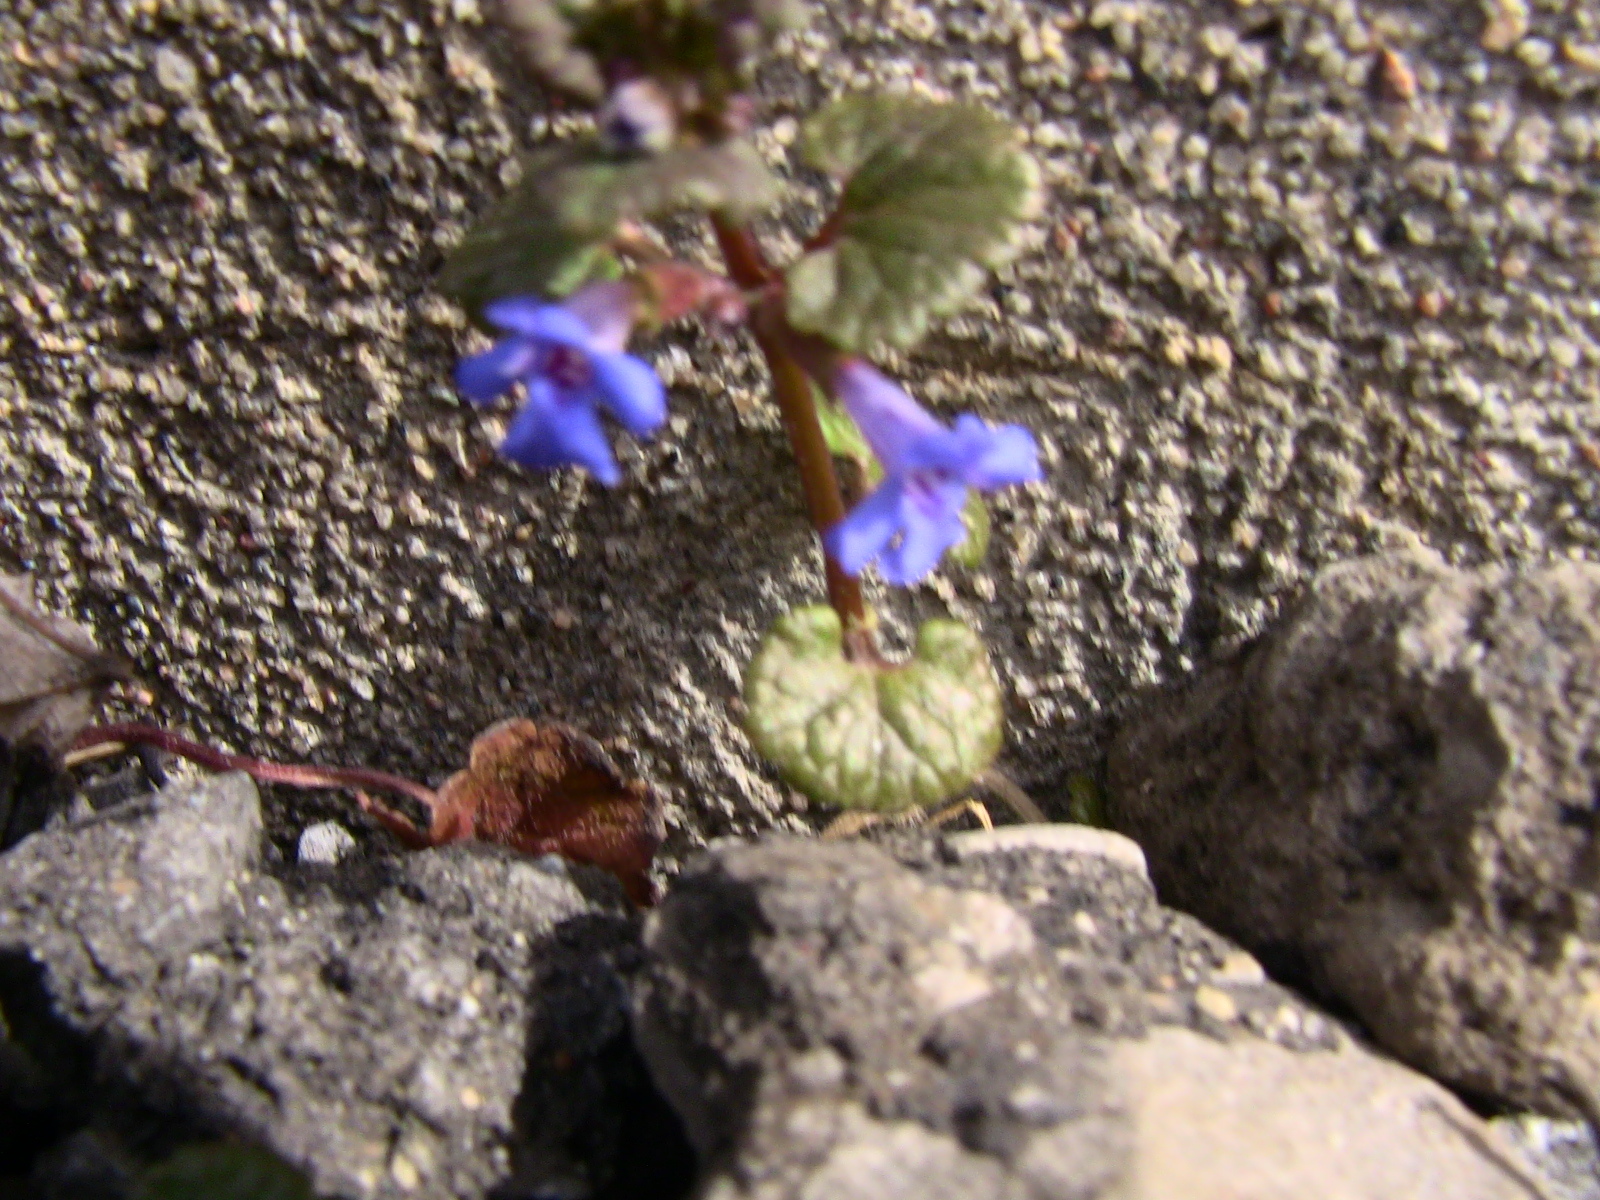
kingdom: Plantae
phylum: Tracheophyta
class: Magnoliopsida
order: Lamiales
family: Lamiaceae
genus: Glechoma
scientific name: Glechoma hederacea
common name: Ground ivy
